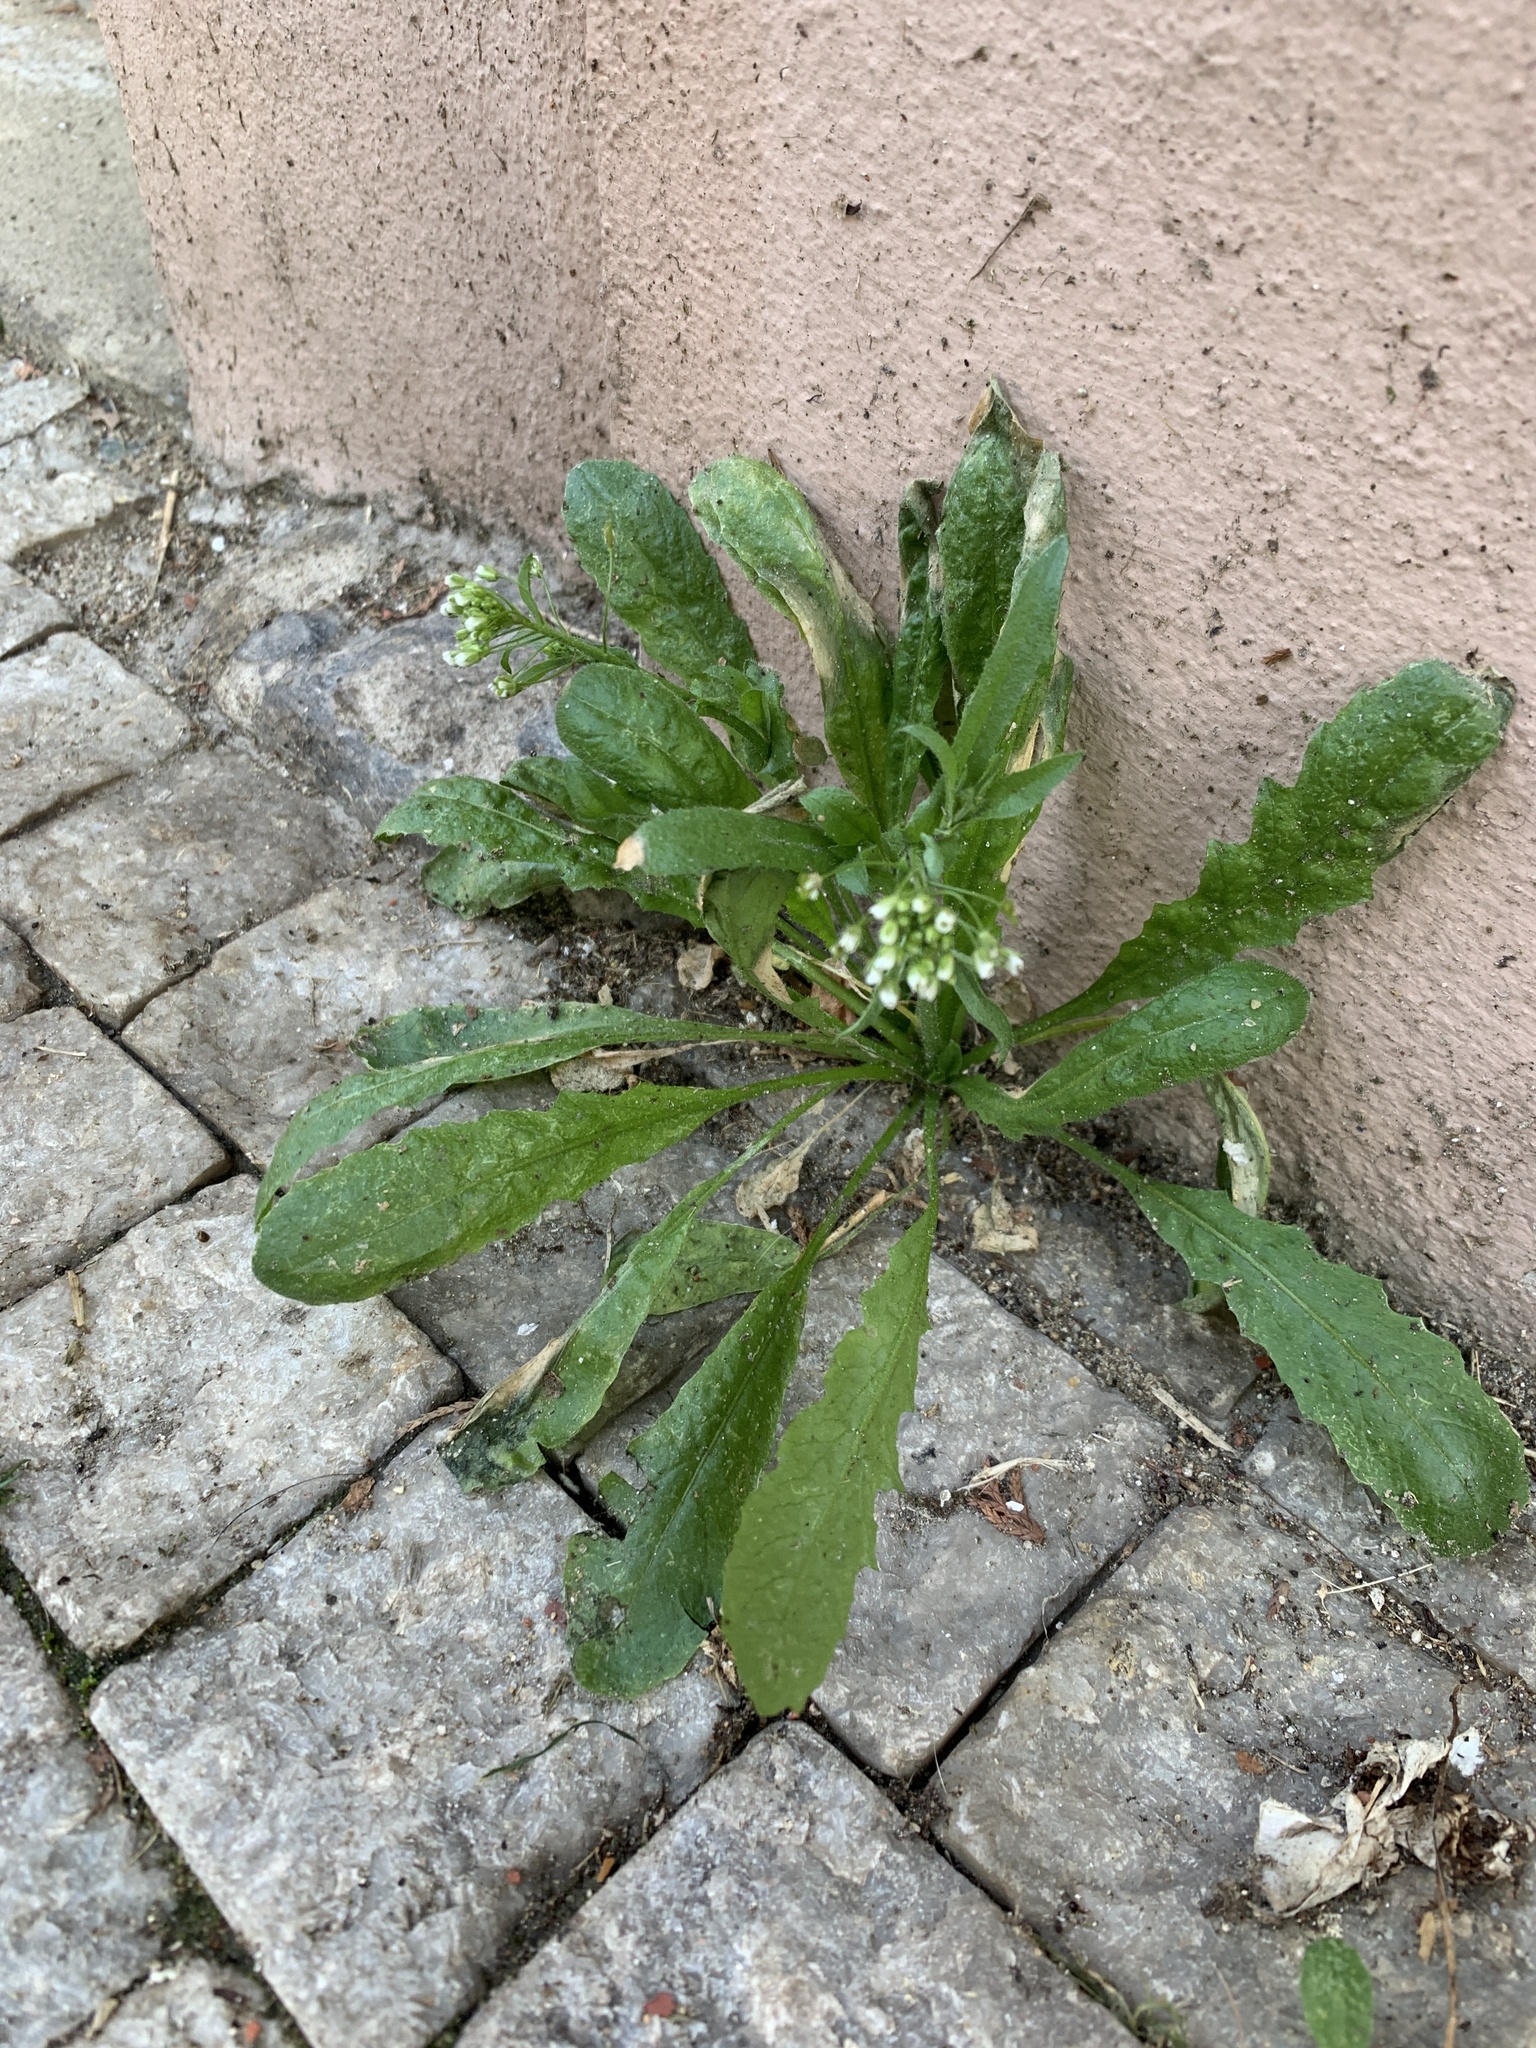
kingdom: Plantae
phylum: Tracheophyta
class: Magnoliopsida
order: Brassicales
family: Brassicaceae
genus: Capsella
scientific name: Capsella bursa-pastoris
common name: Shepherd's purse
